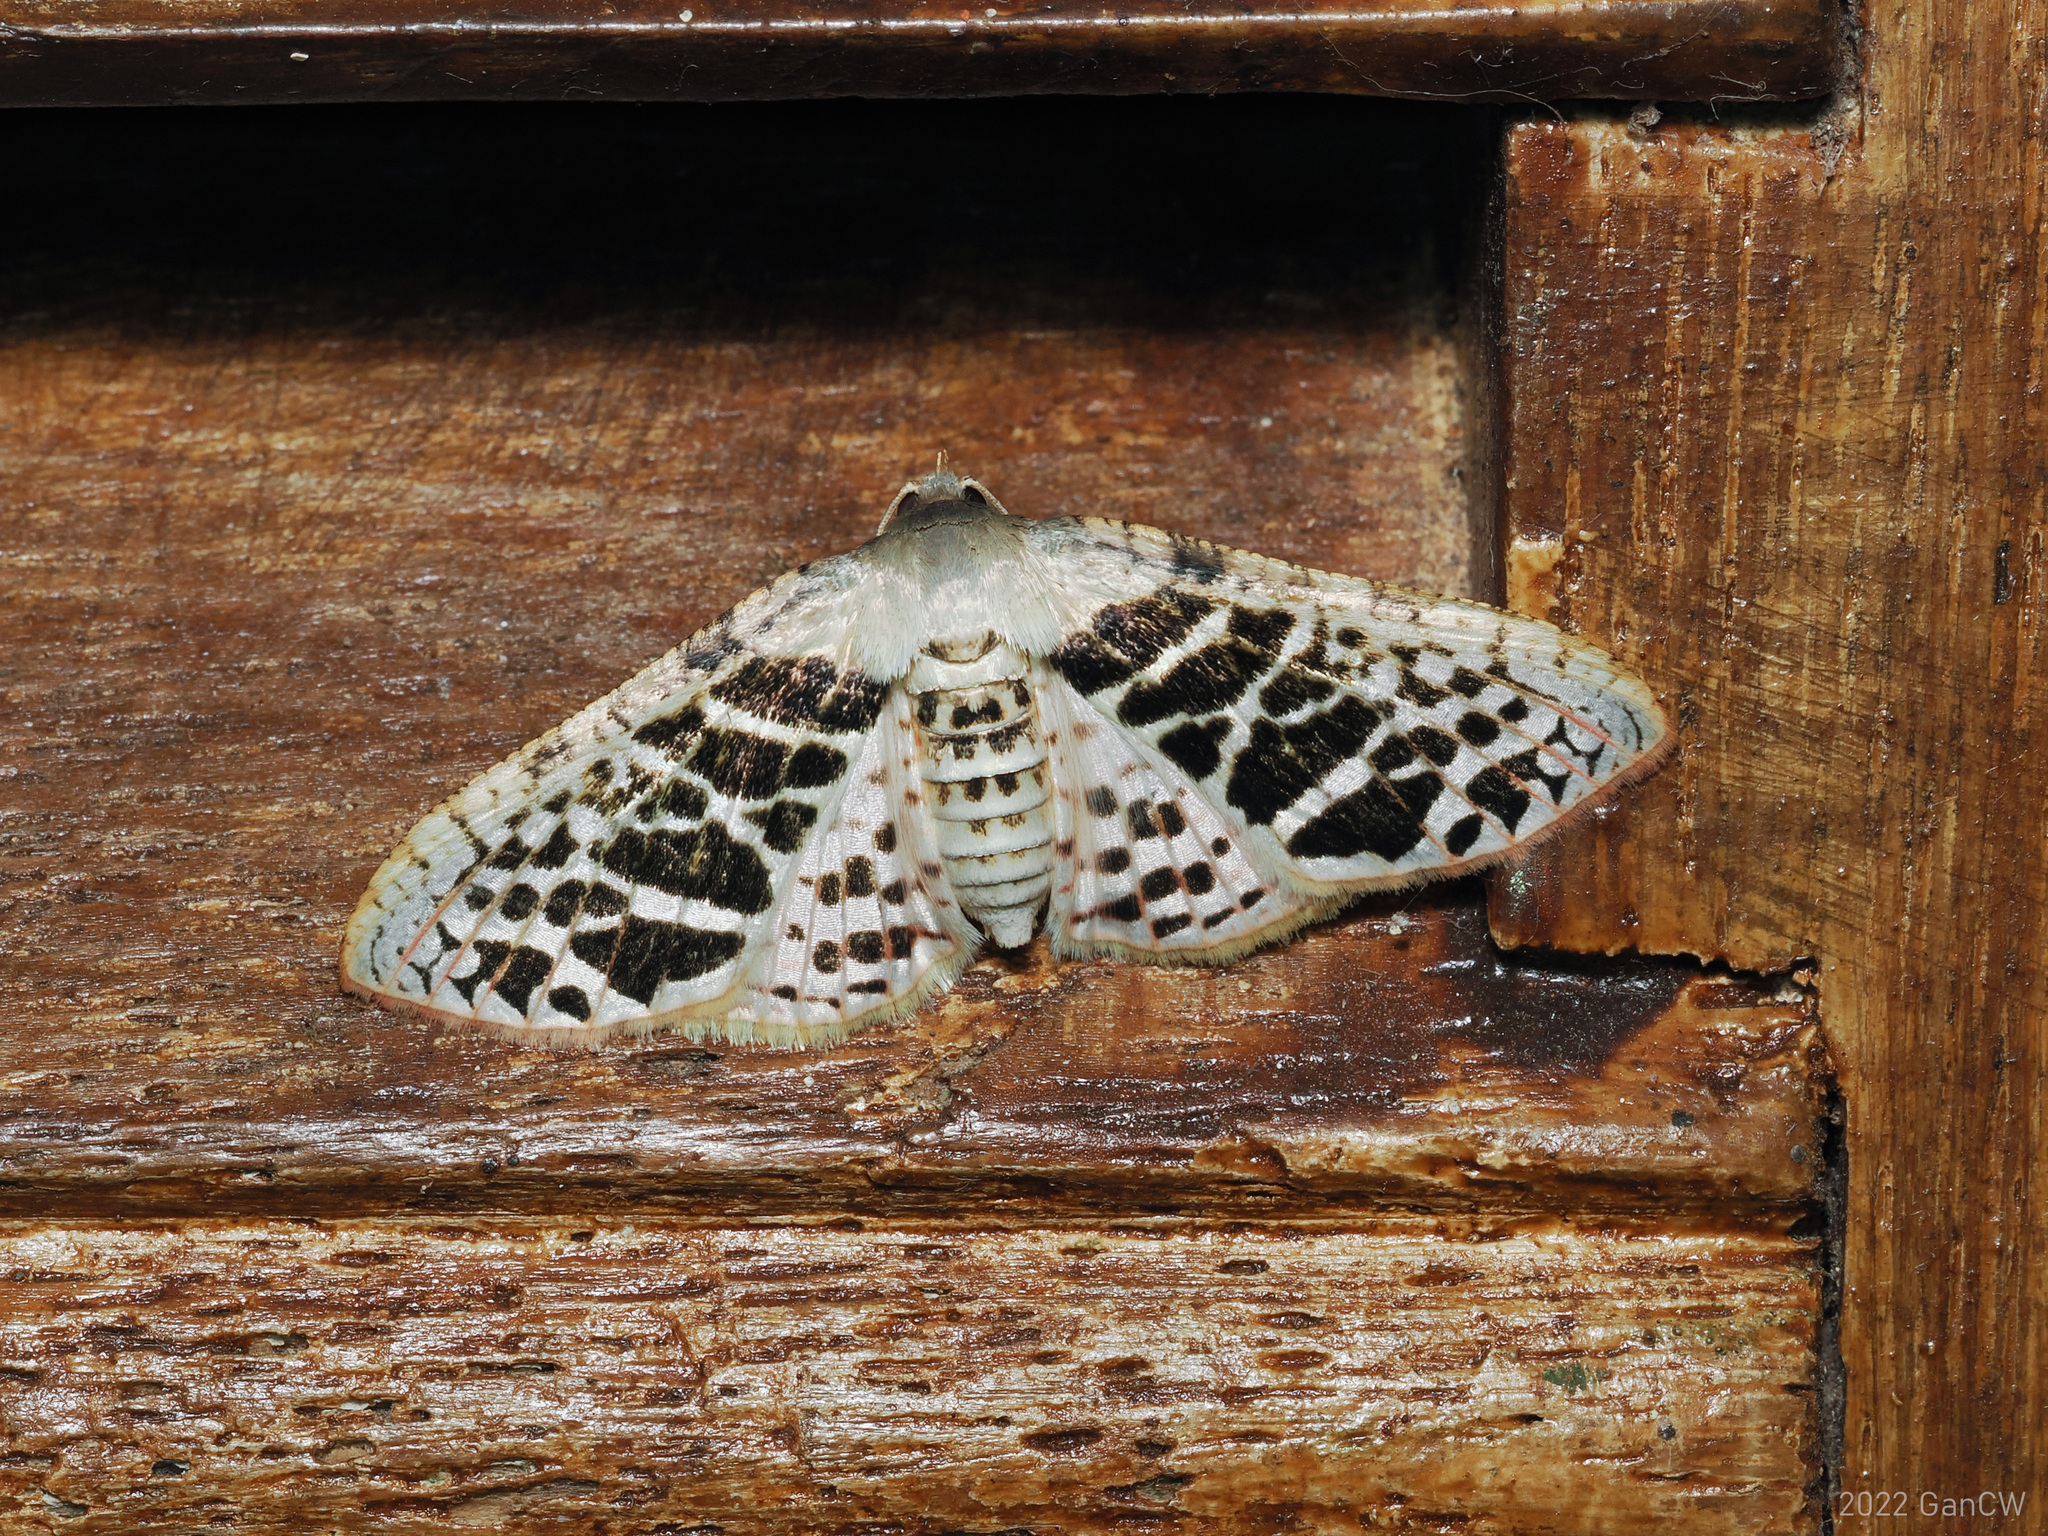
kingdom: Animalia
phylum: Arthropoda
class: Insecta
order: Lepidoptera
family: Thyrididae
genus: Rhodoneura
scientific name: Rhodoneura pudicula
